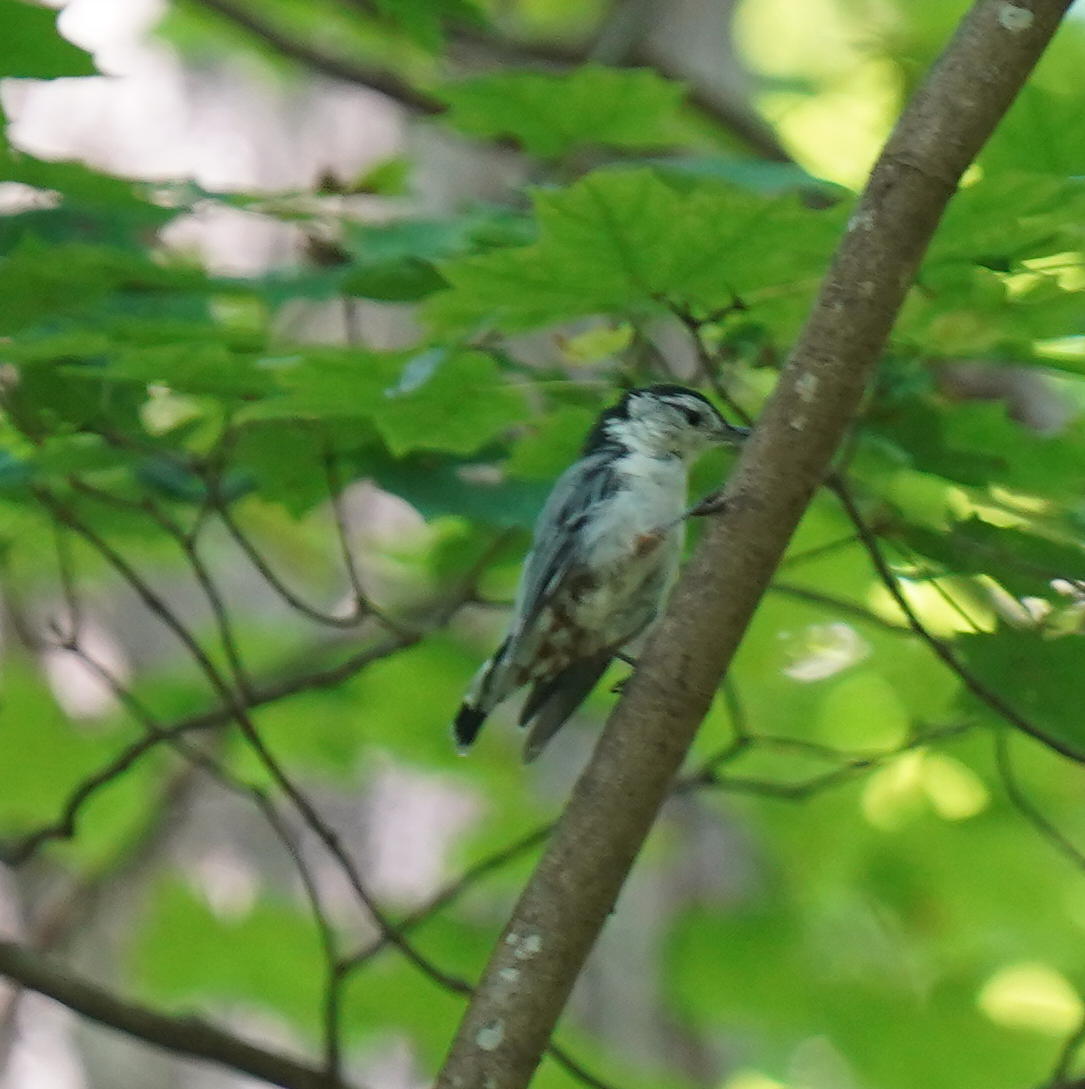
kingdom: Animalia
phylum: Chordata
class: Aves
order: Passeriformes
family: Sittidae
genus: Sitta
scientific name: Sitta carolinensis
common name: White-breasted nuthatch
